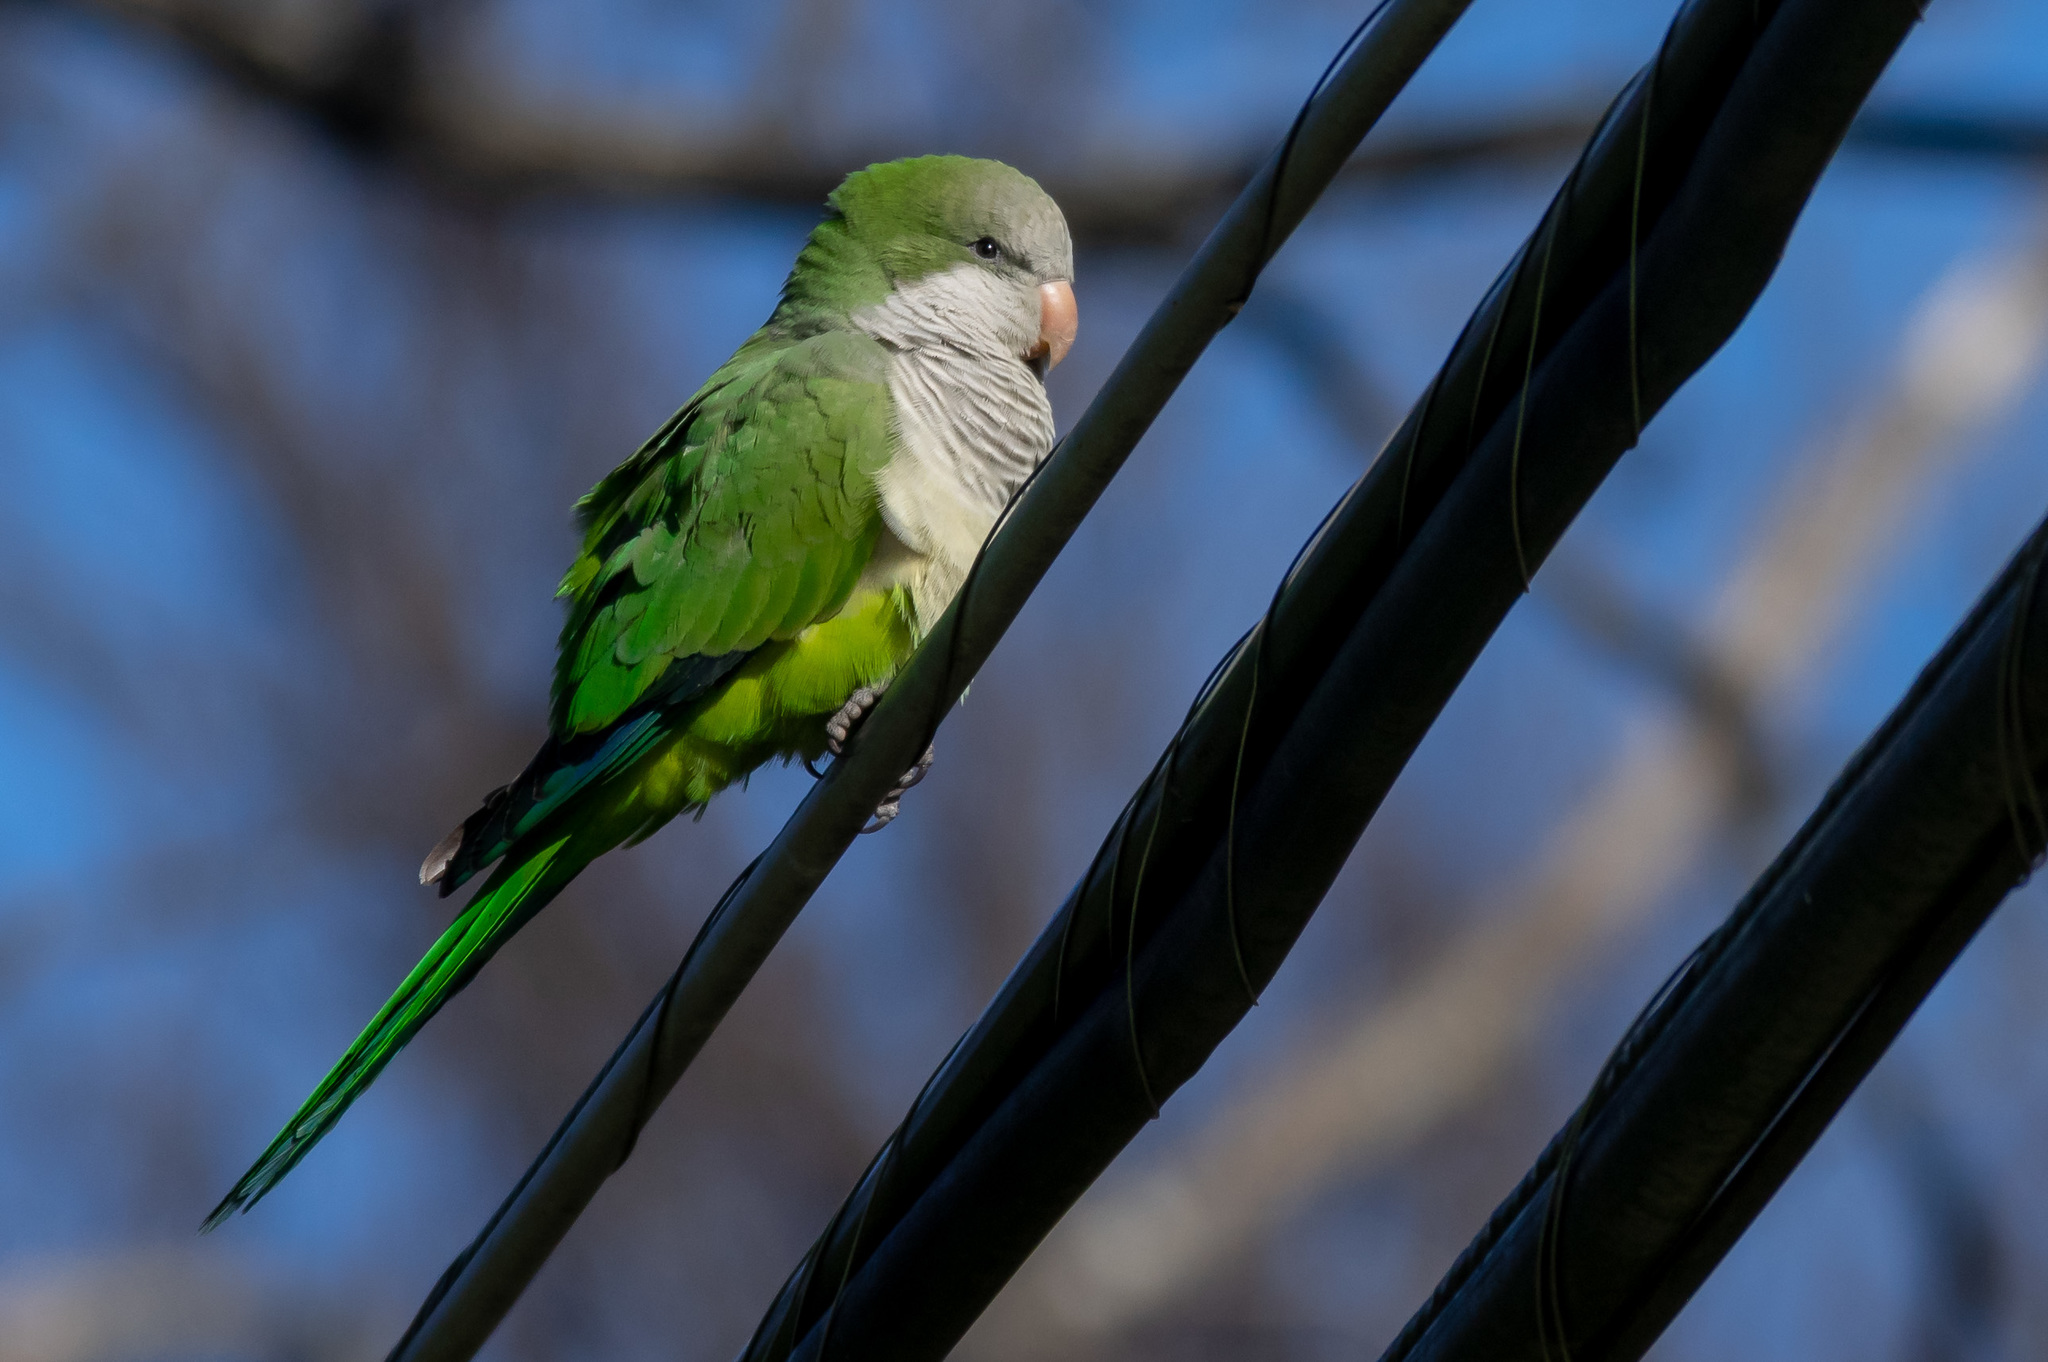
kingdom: Animalia
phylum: Chordata
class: Aves
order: Psittaciformes
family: Psittacidae
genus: Myiopsitta
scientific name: Myiopsitta monachus
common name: Monk parakeet
